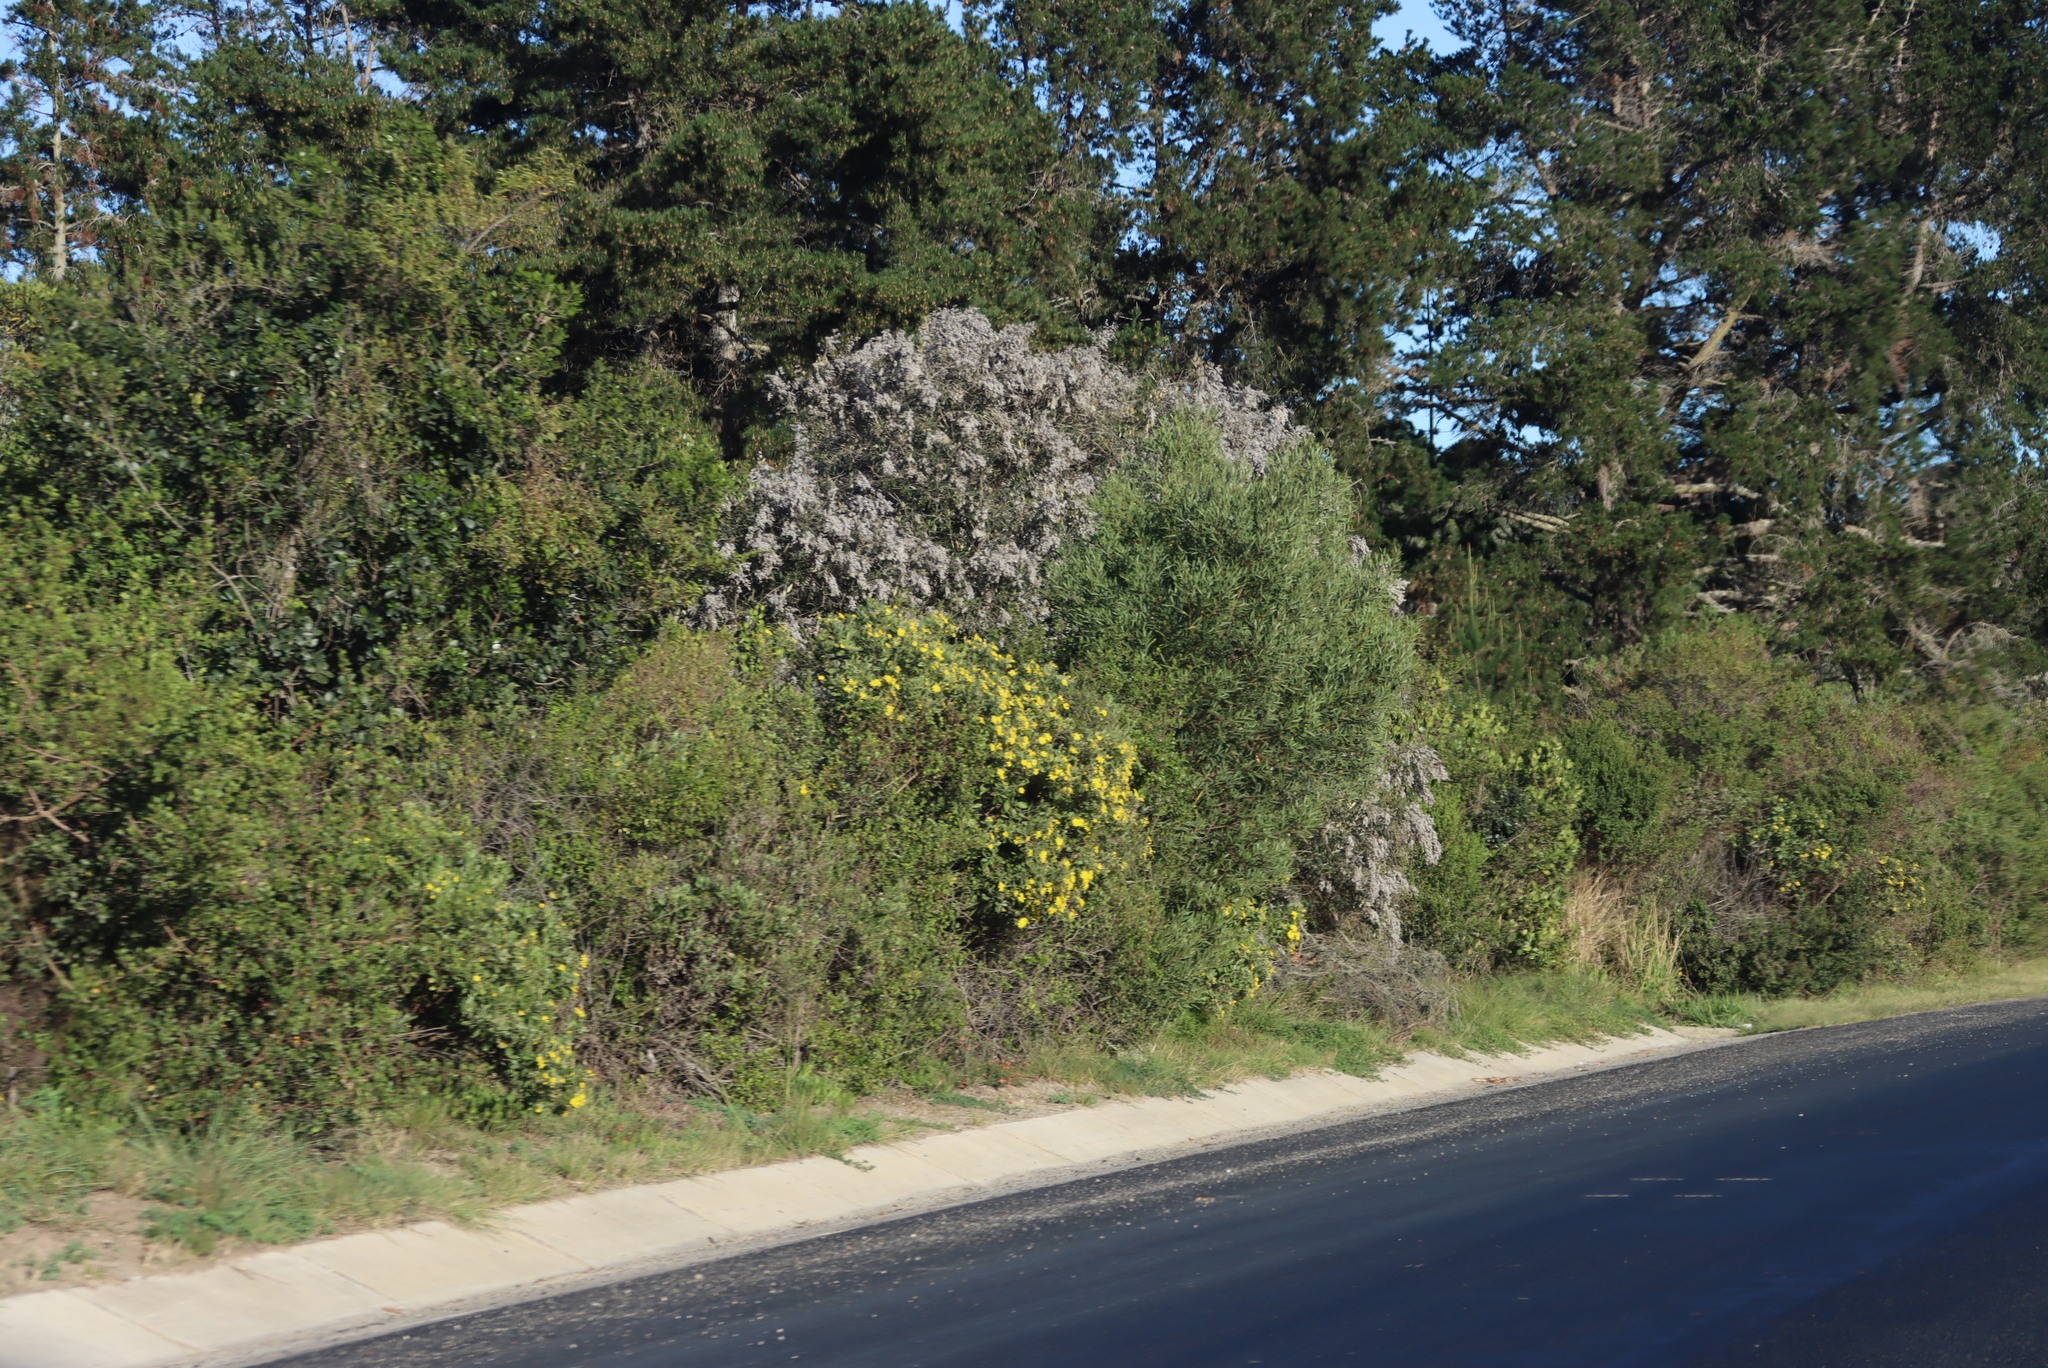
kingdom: Plantae
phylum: Tracheophyta
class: Magnoliopsida
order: Asterales
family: Asteraceae
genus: Tarchonanthus
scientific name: Tarchonanthus littoralis
